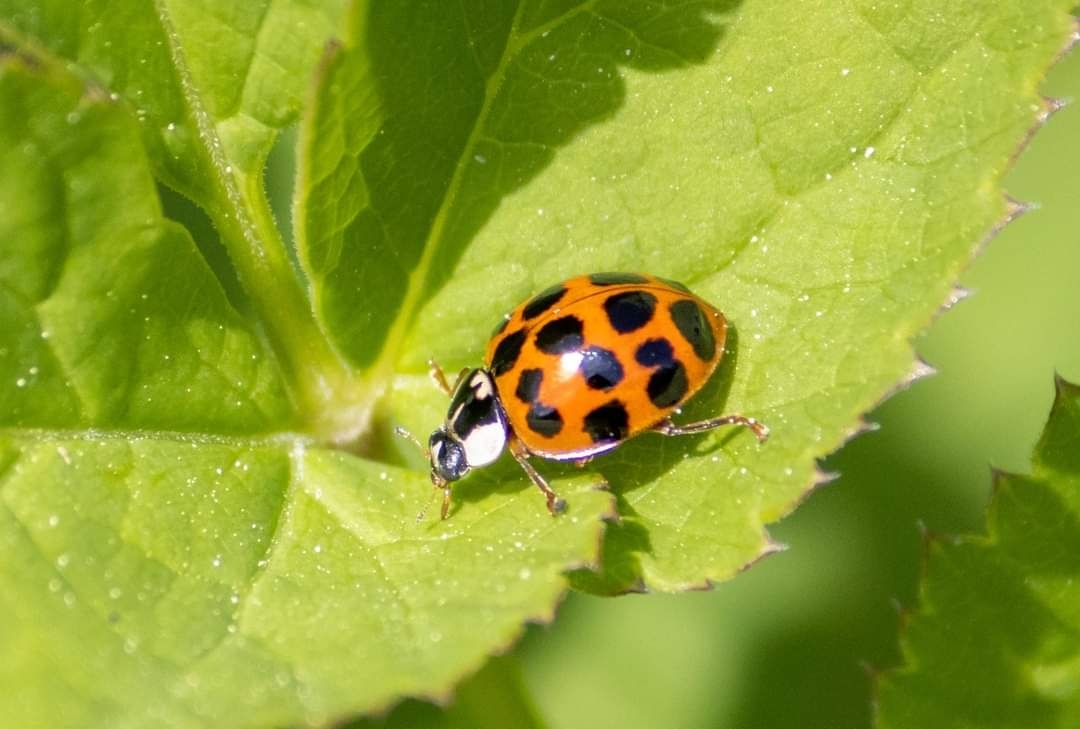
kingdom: Animalia
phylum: Arthropoda
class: Insecta
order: Coleoptera
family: Coccinellidae
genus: Harmonia
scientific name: Harmonia axyridis
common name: Harlequin ladybird
